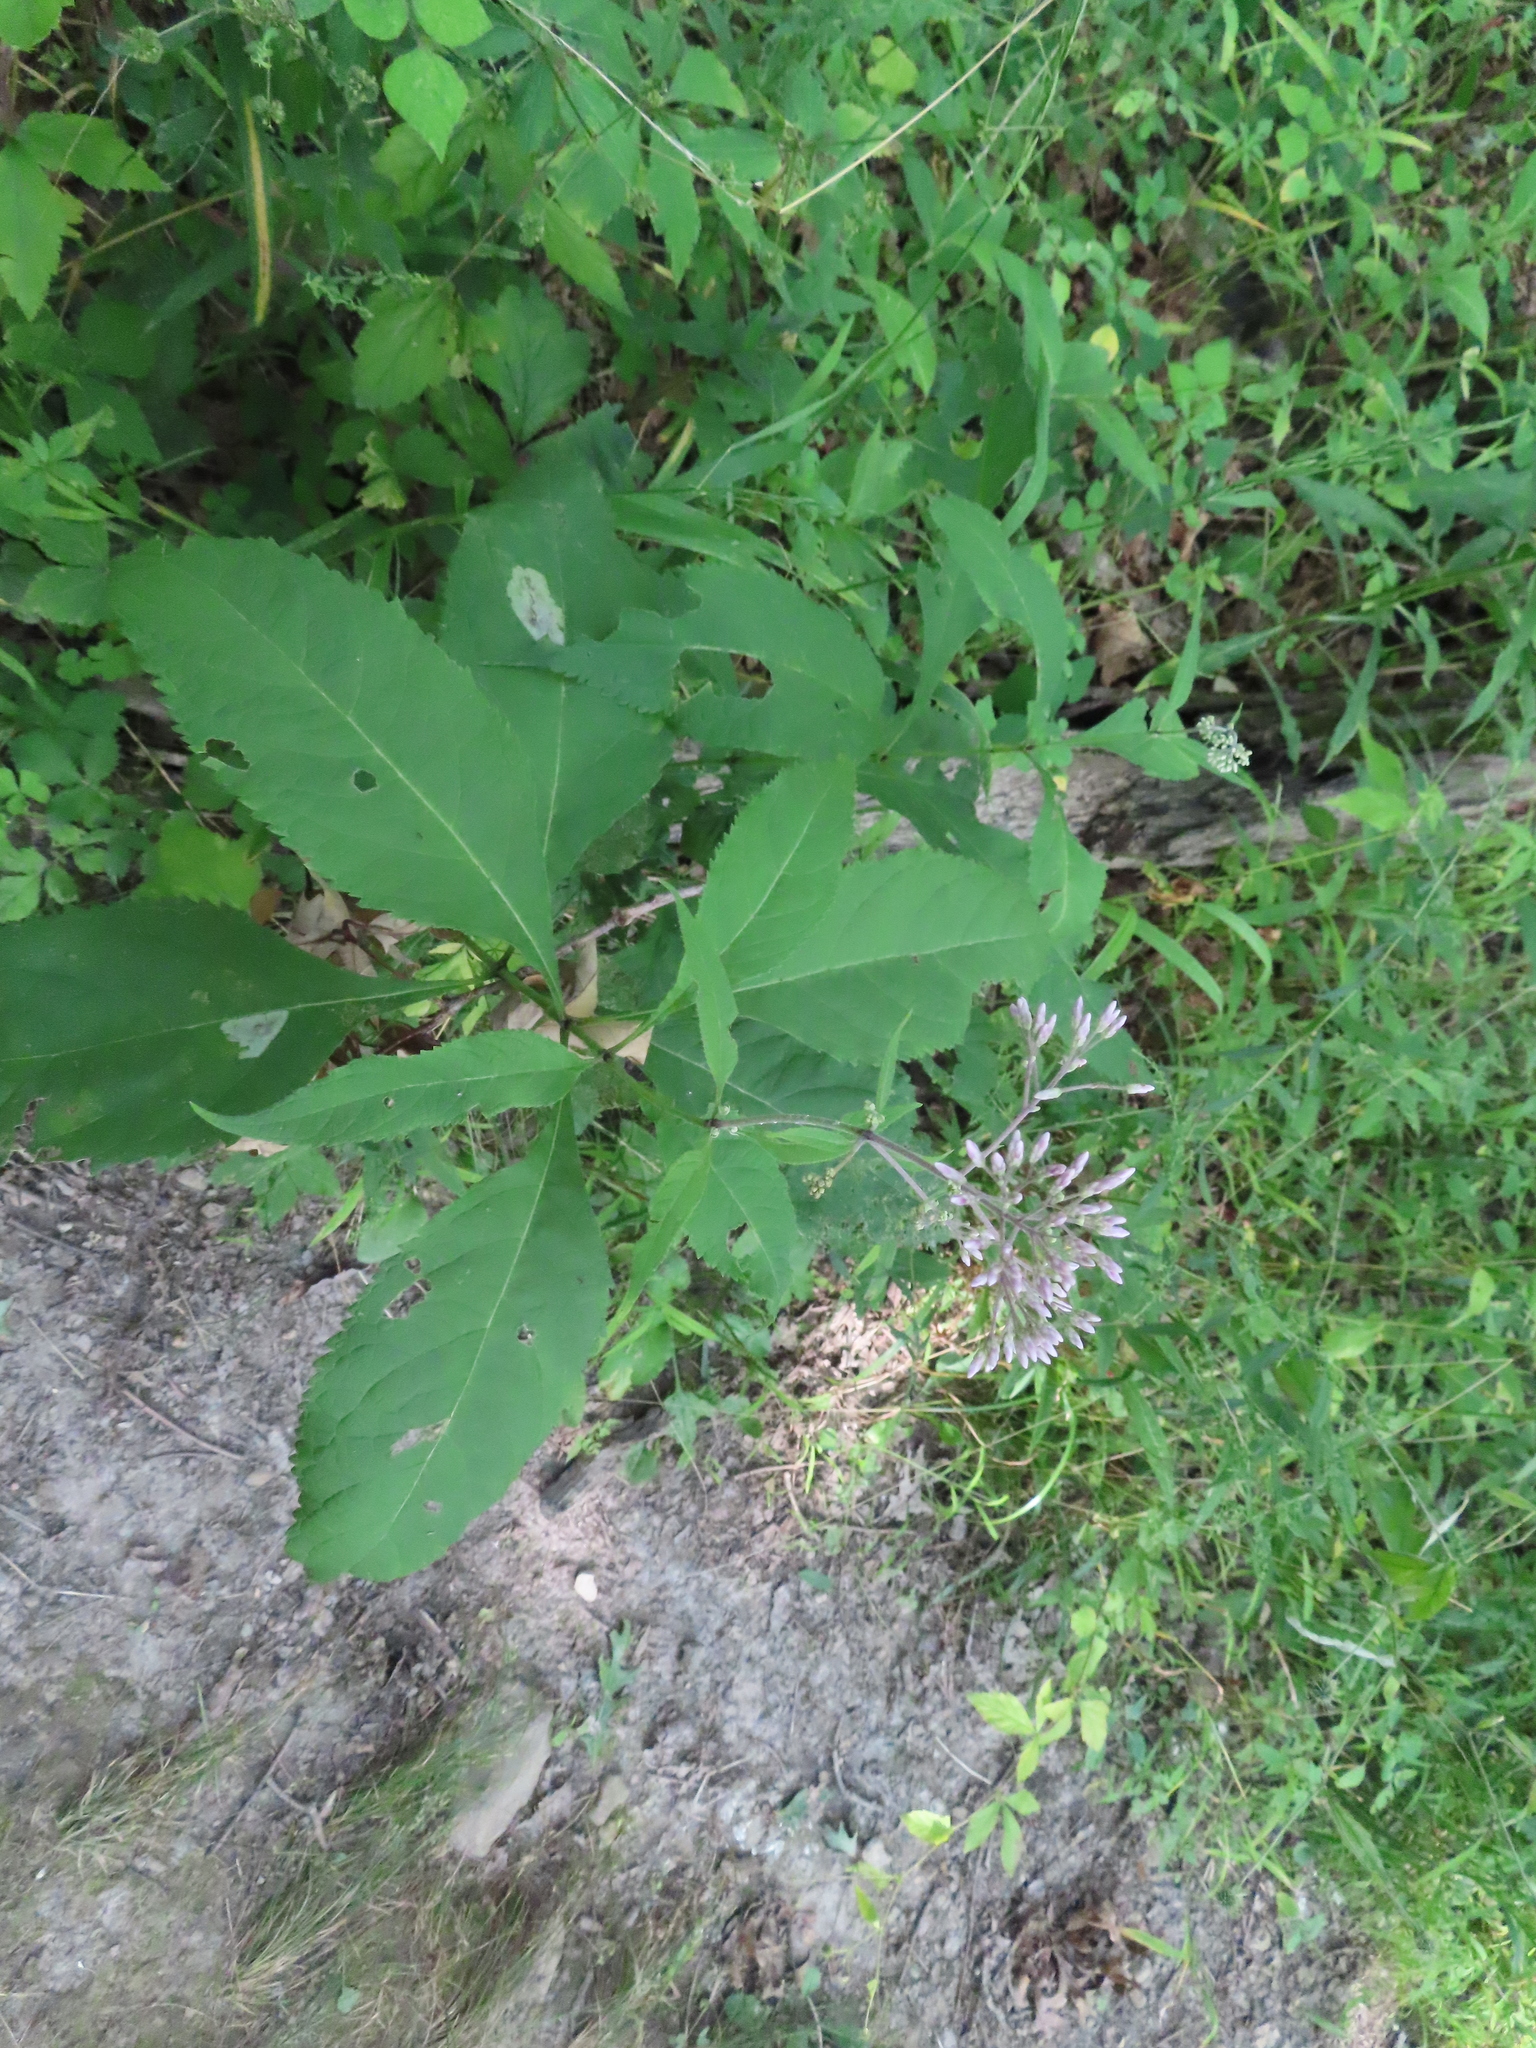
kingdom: Plantae
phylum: Tracheophyta
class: Magnoliopsida
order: Asterales
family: Asteraceae
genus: Eutrochium
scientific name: Eutrochium purpureum
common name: Gravelroot
